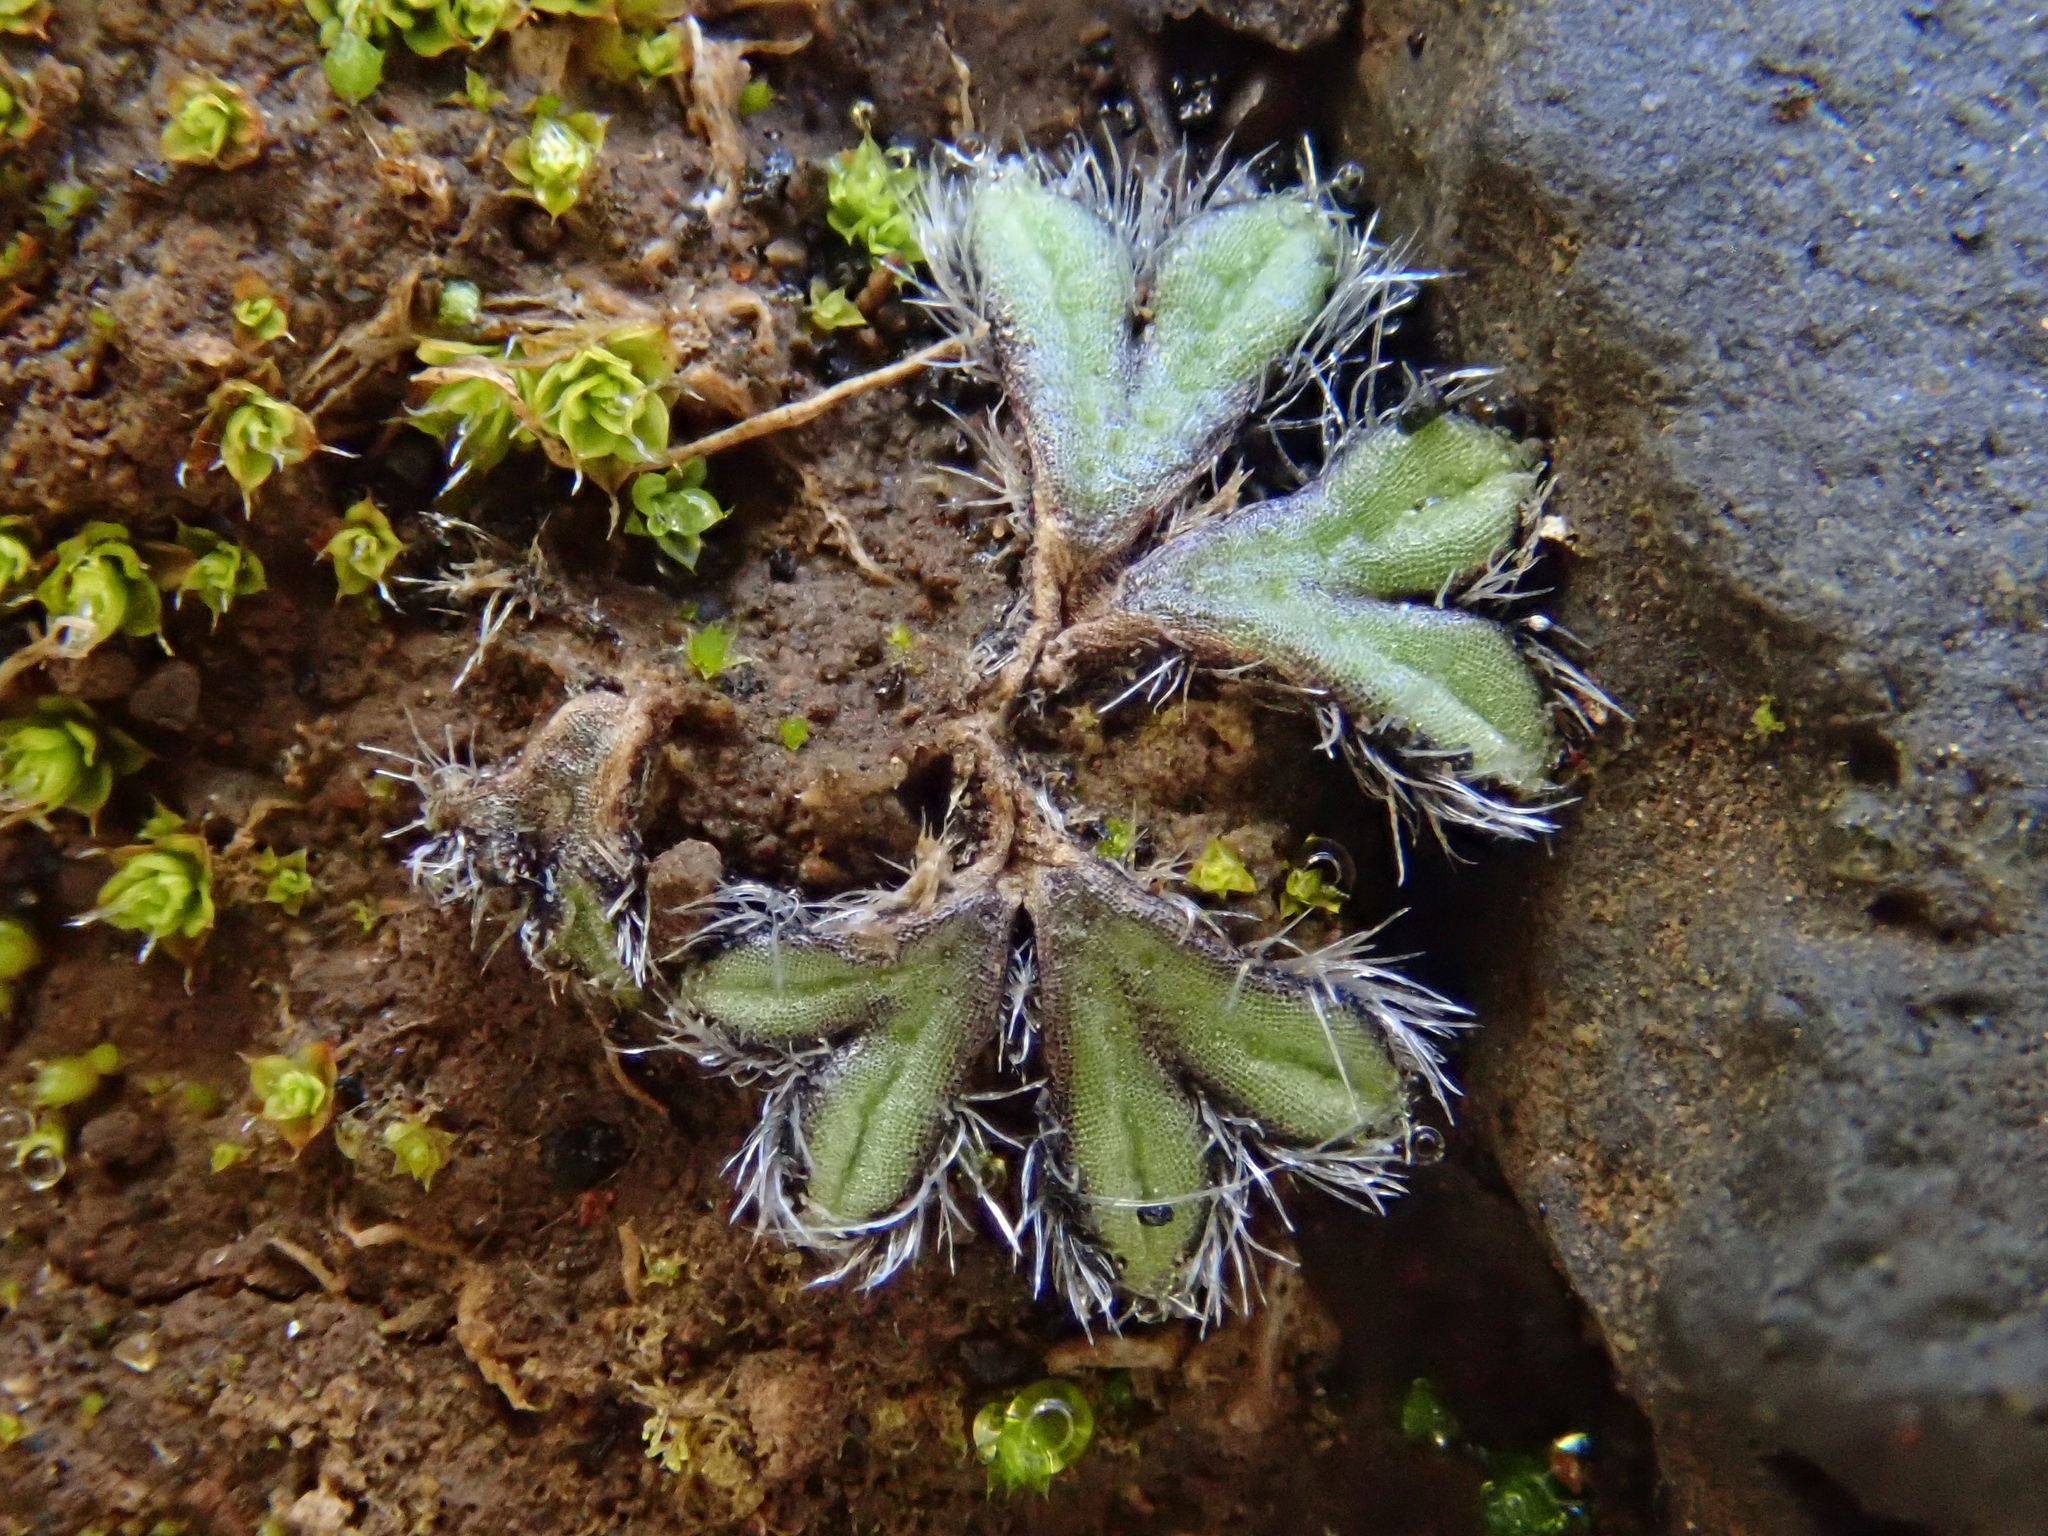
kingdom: Plantae
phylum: Marchantiophyta
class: Marchantiopsida
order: Marchantiales
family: Ricciaceae
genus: Riccia
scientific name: Riccia ciliata
